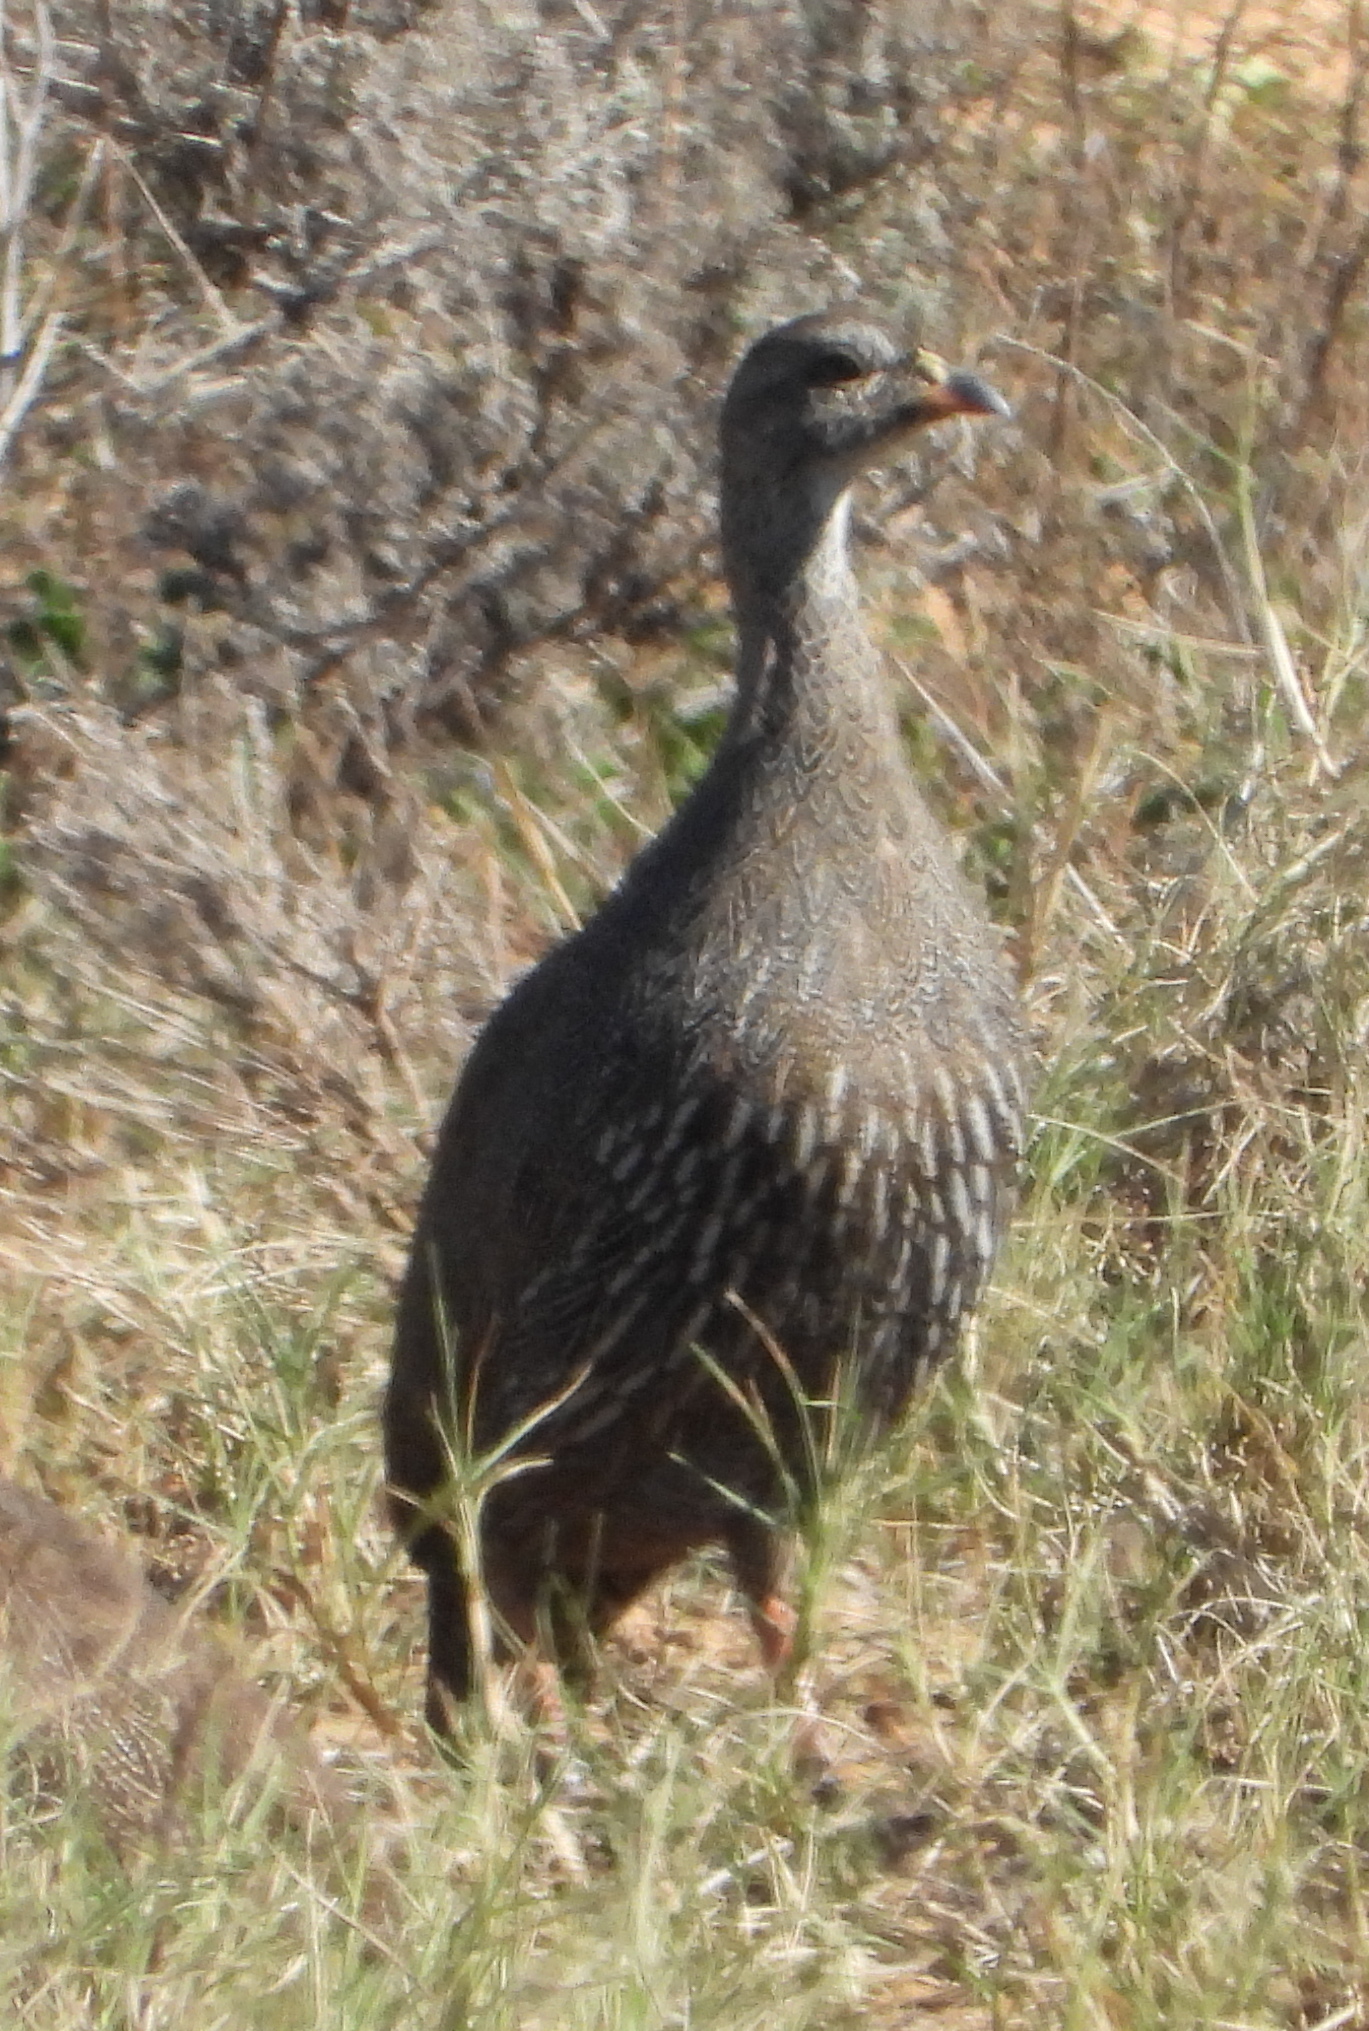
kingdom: Animalia
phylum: Chordata
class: Aves
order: Galliformes
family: Phasianidae
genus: Pternistis
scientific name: Pternistis capensis
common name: Cape spurfowl
